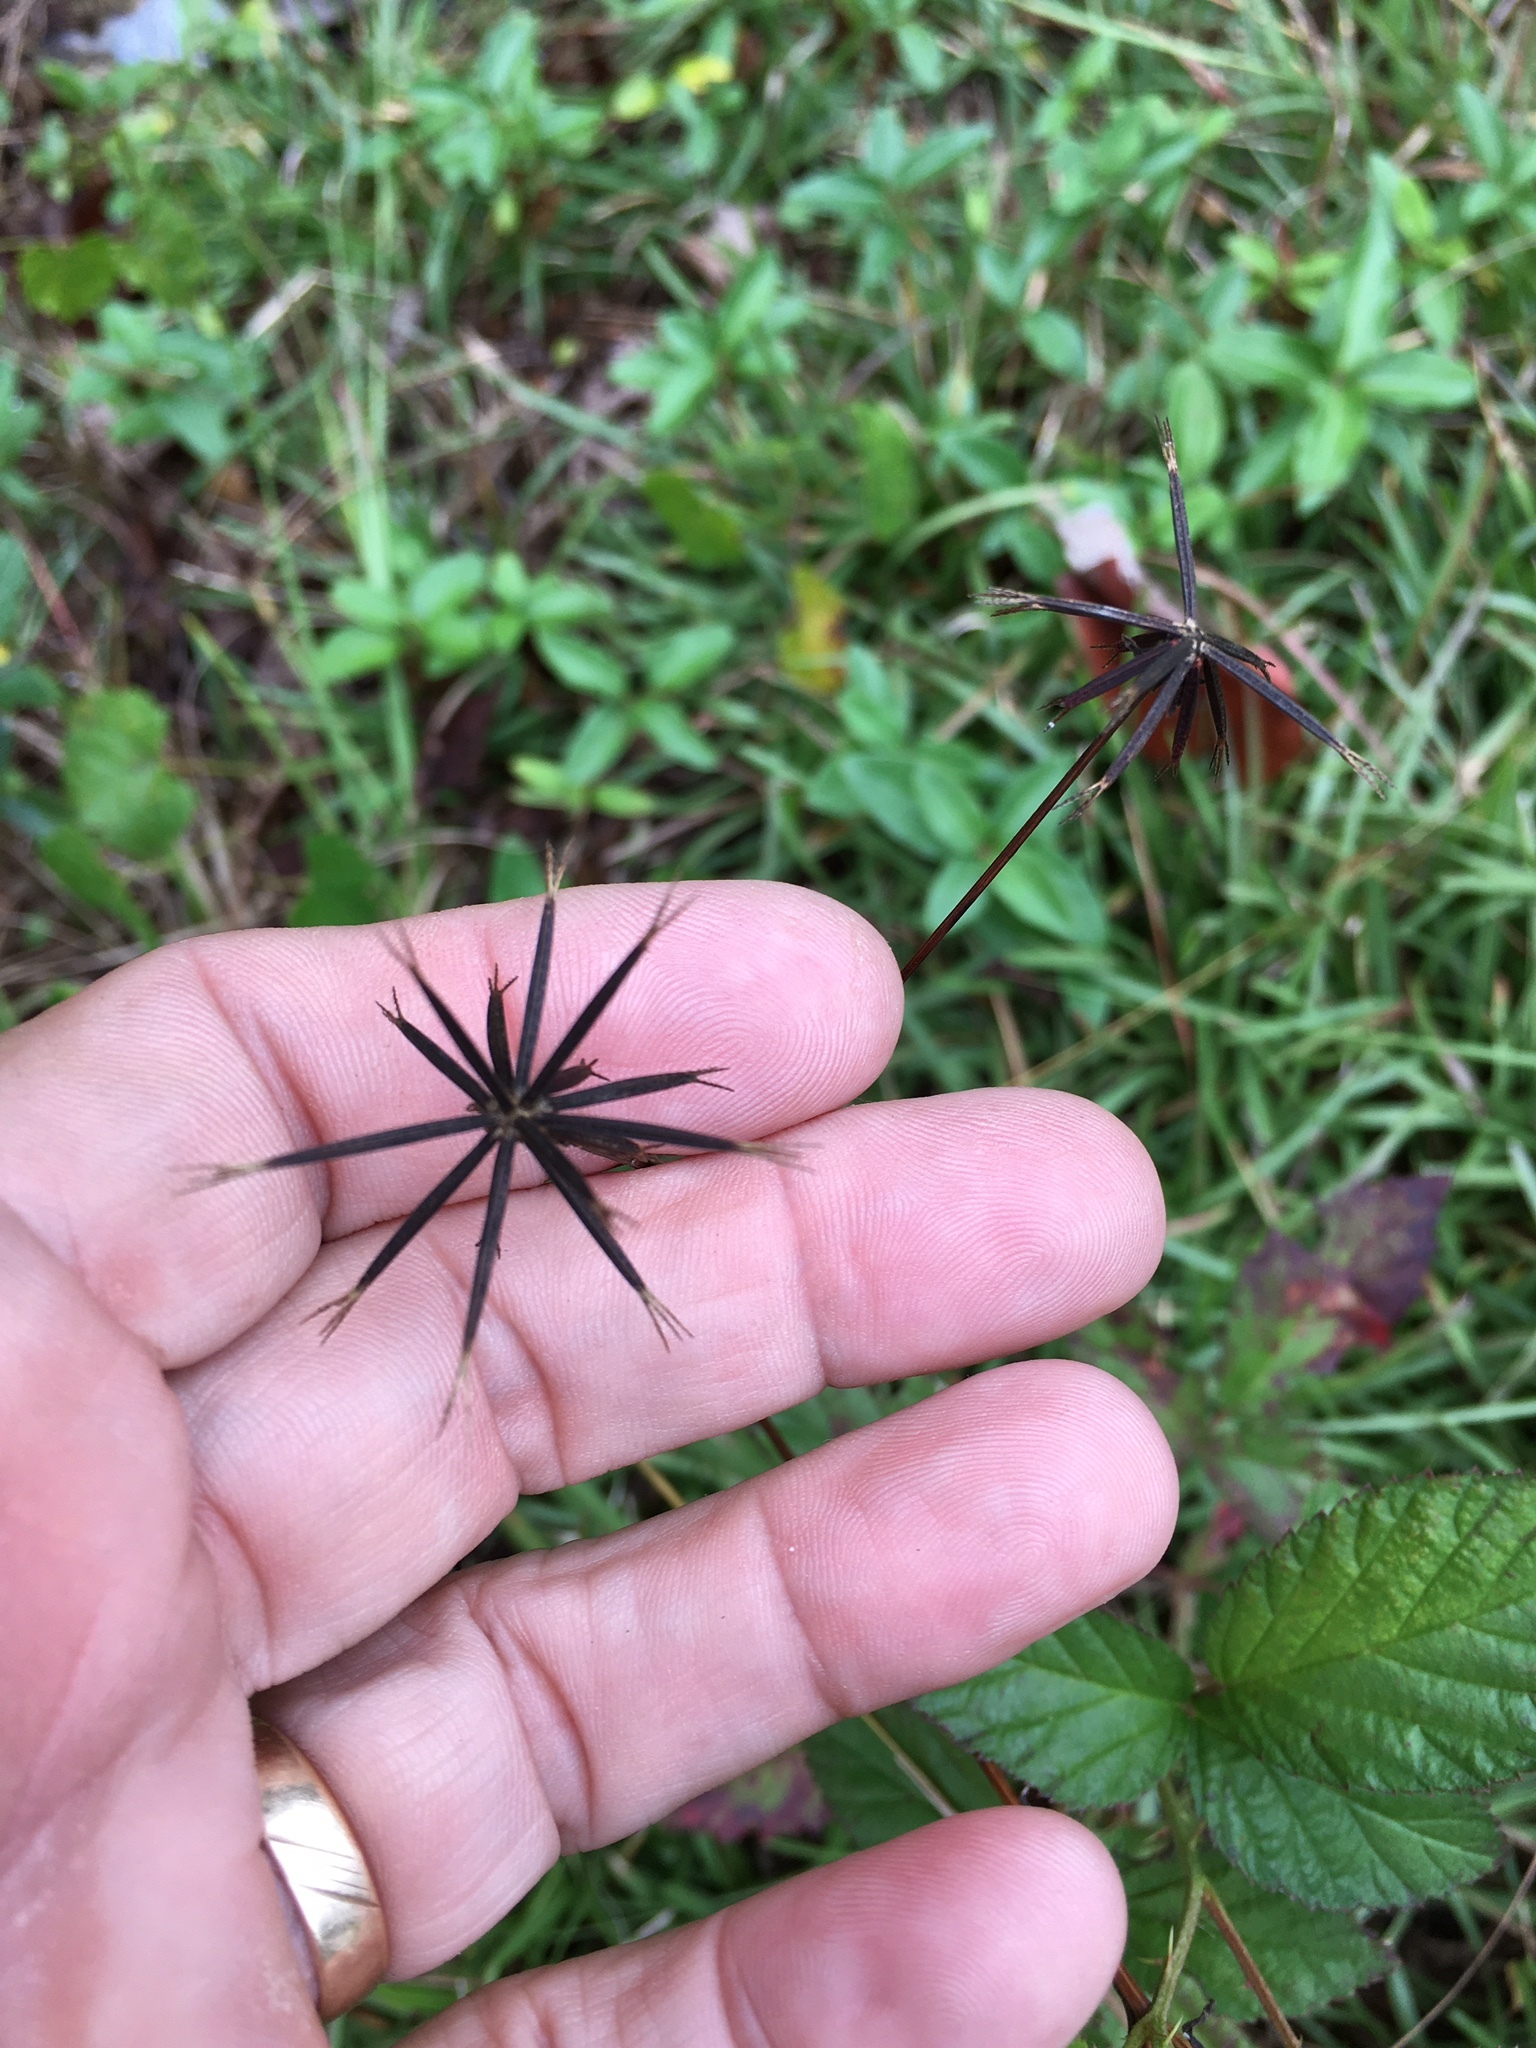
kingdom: Plantae
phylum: Tracheophyta
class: Magnoliopsida
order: Asterales
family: Asteraceae
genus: Bidens
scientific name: Bidens bipinnata
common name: Spanish-needles
